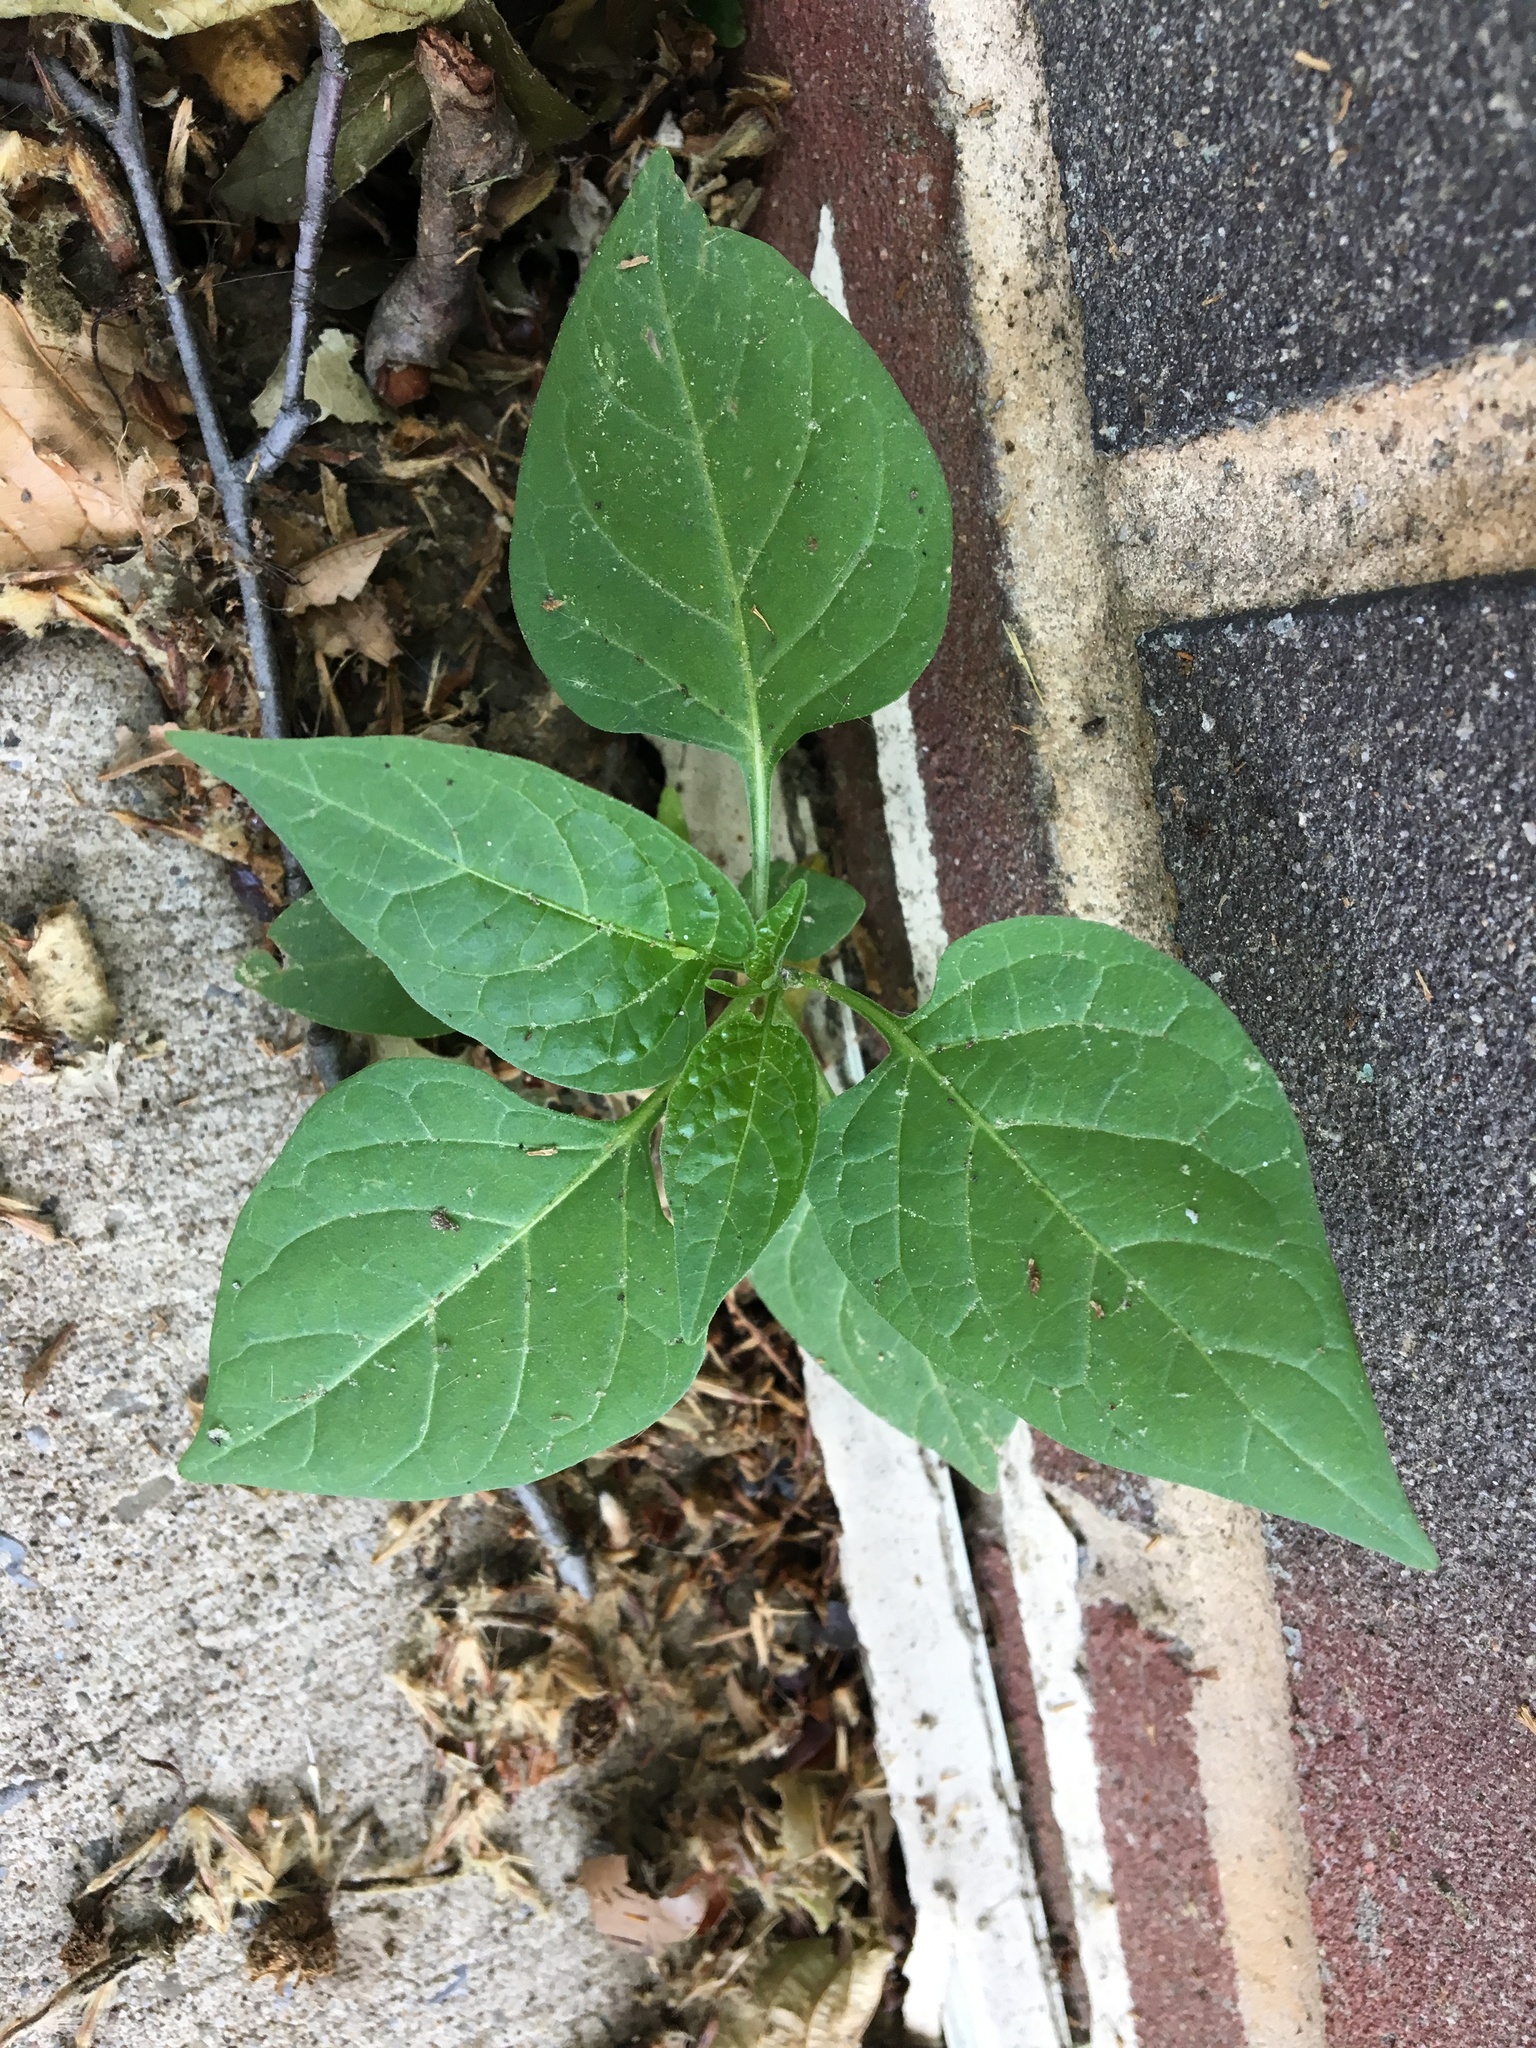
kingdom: Plantae
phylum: Tracheophyta
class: Magnoliopsida
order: Solanales
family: Solanaceae
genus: Solanum
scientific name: Solanum dulcamara
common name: Climbing nightshade
